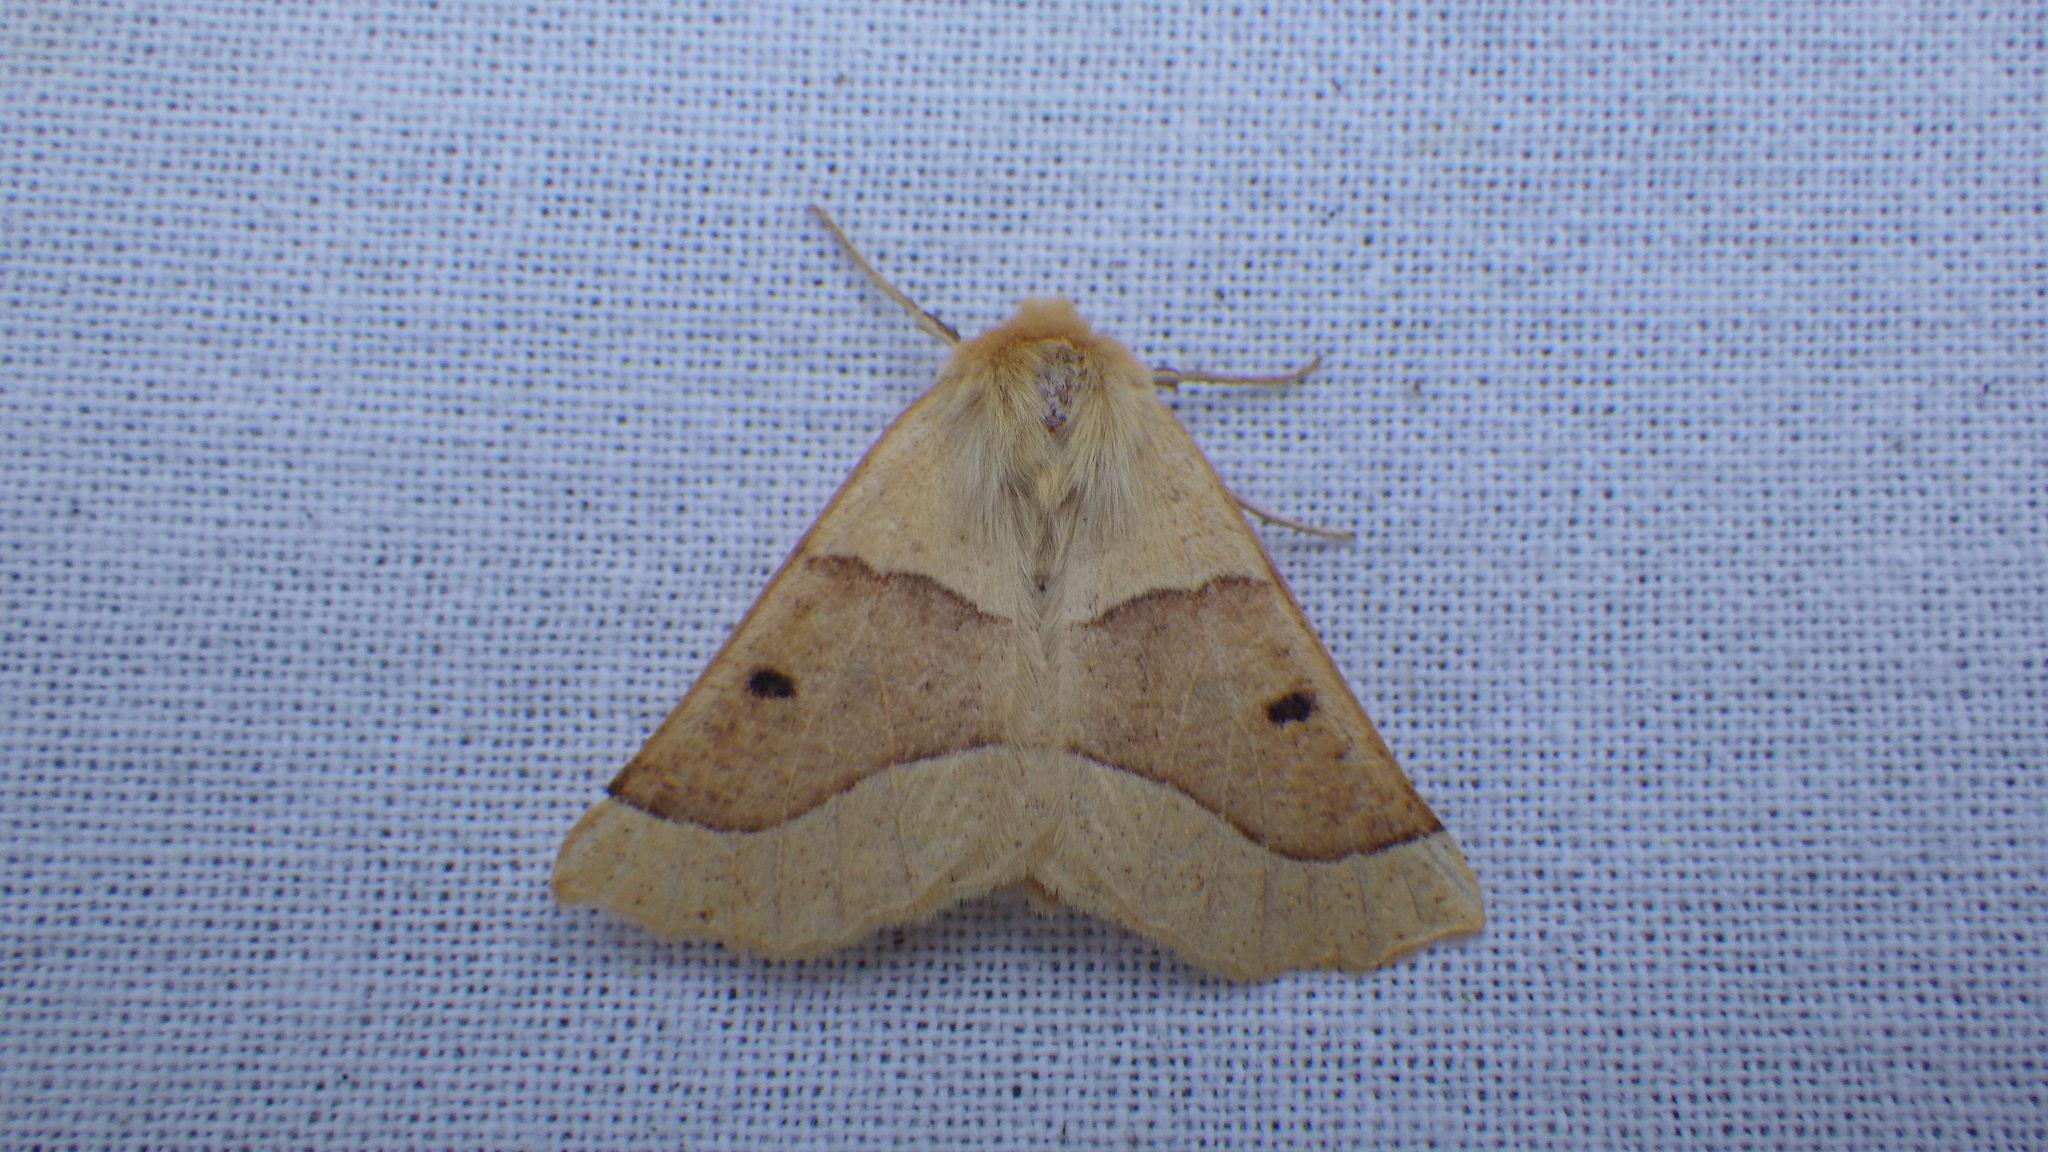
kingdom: Animalia
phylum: Arthropoda
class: Insecta
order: Lepidoptera
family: Geometridae
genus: Crocallis
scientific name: Crocallis elinguaria
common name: Scalloped oak
